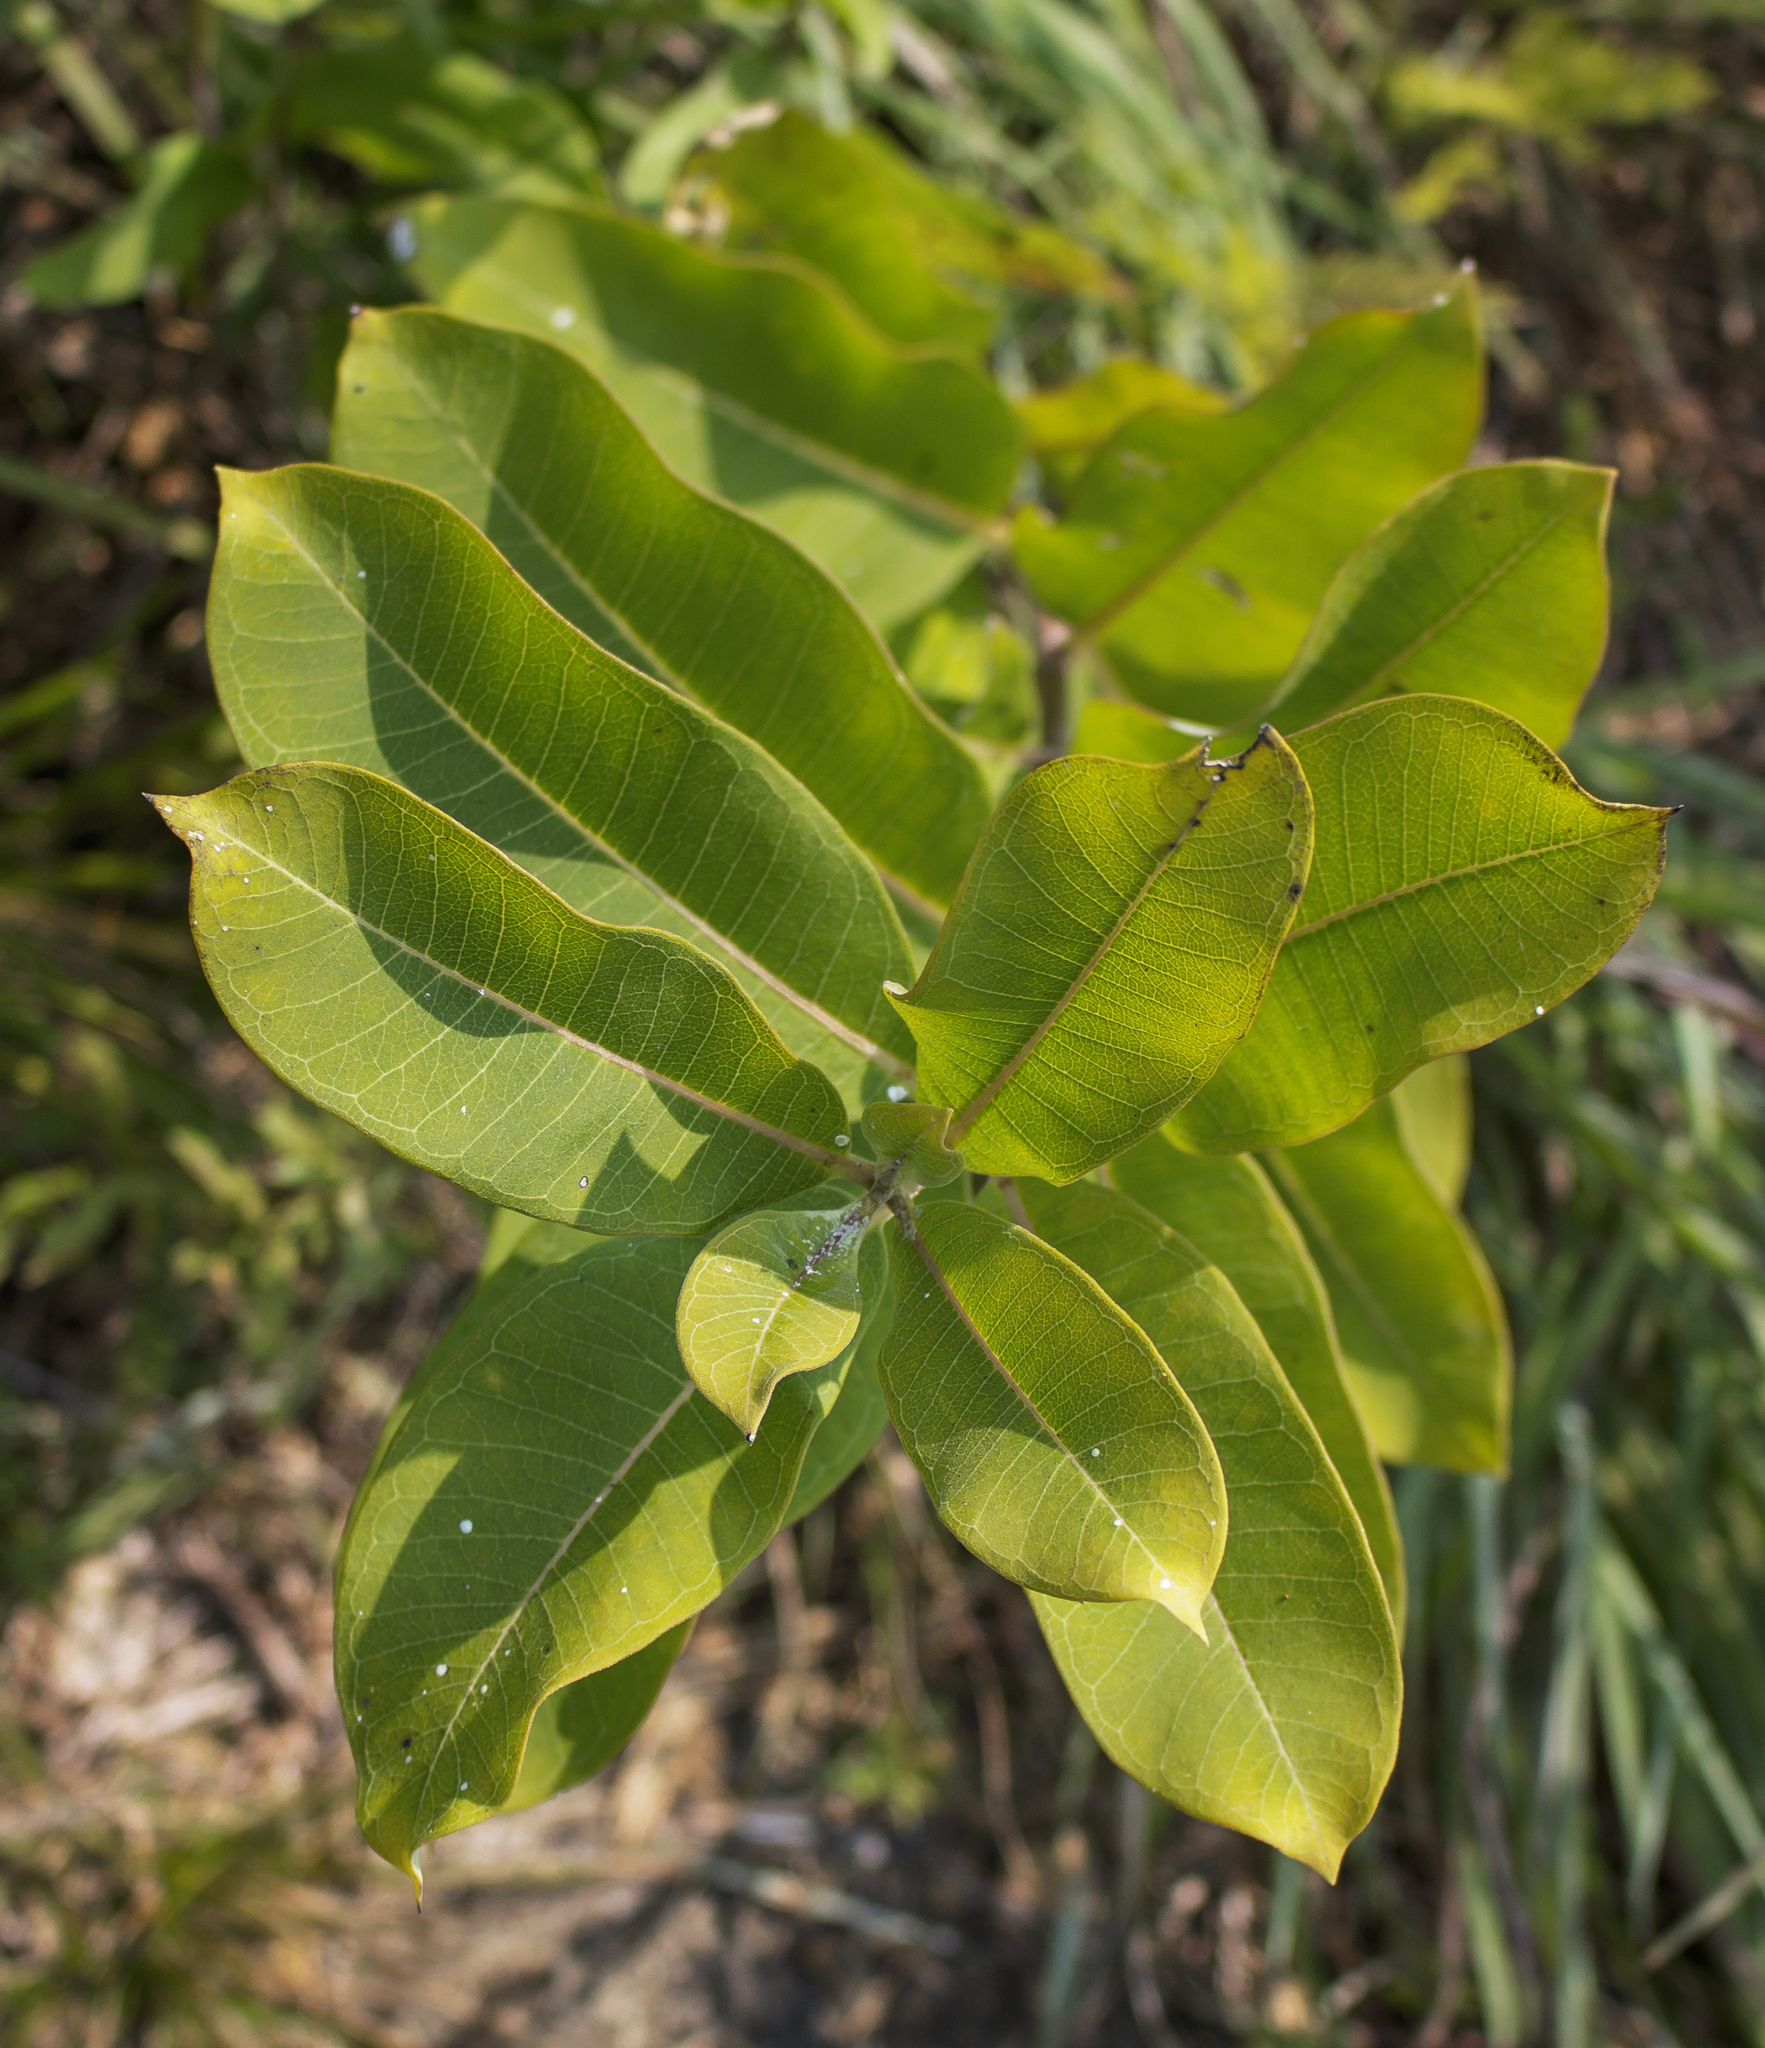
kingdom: Plantae
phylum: Tracheophyta
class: Magnoliopsida
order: Gentianales
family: Apocynaceae
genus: Asclepias
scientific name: Asclepias syriaca
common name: Common milkweed
